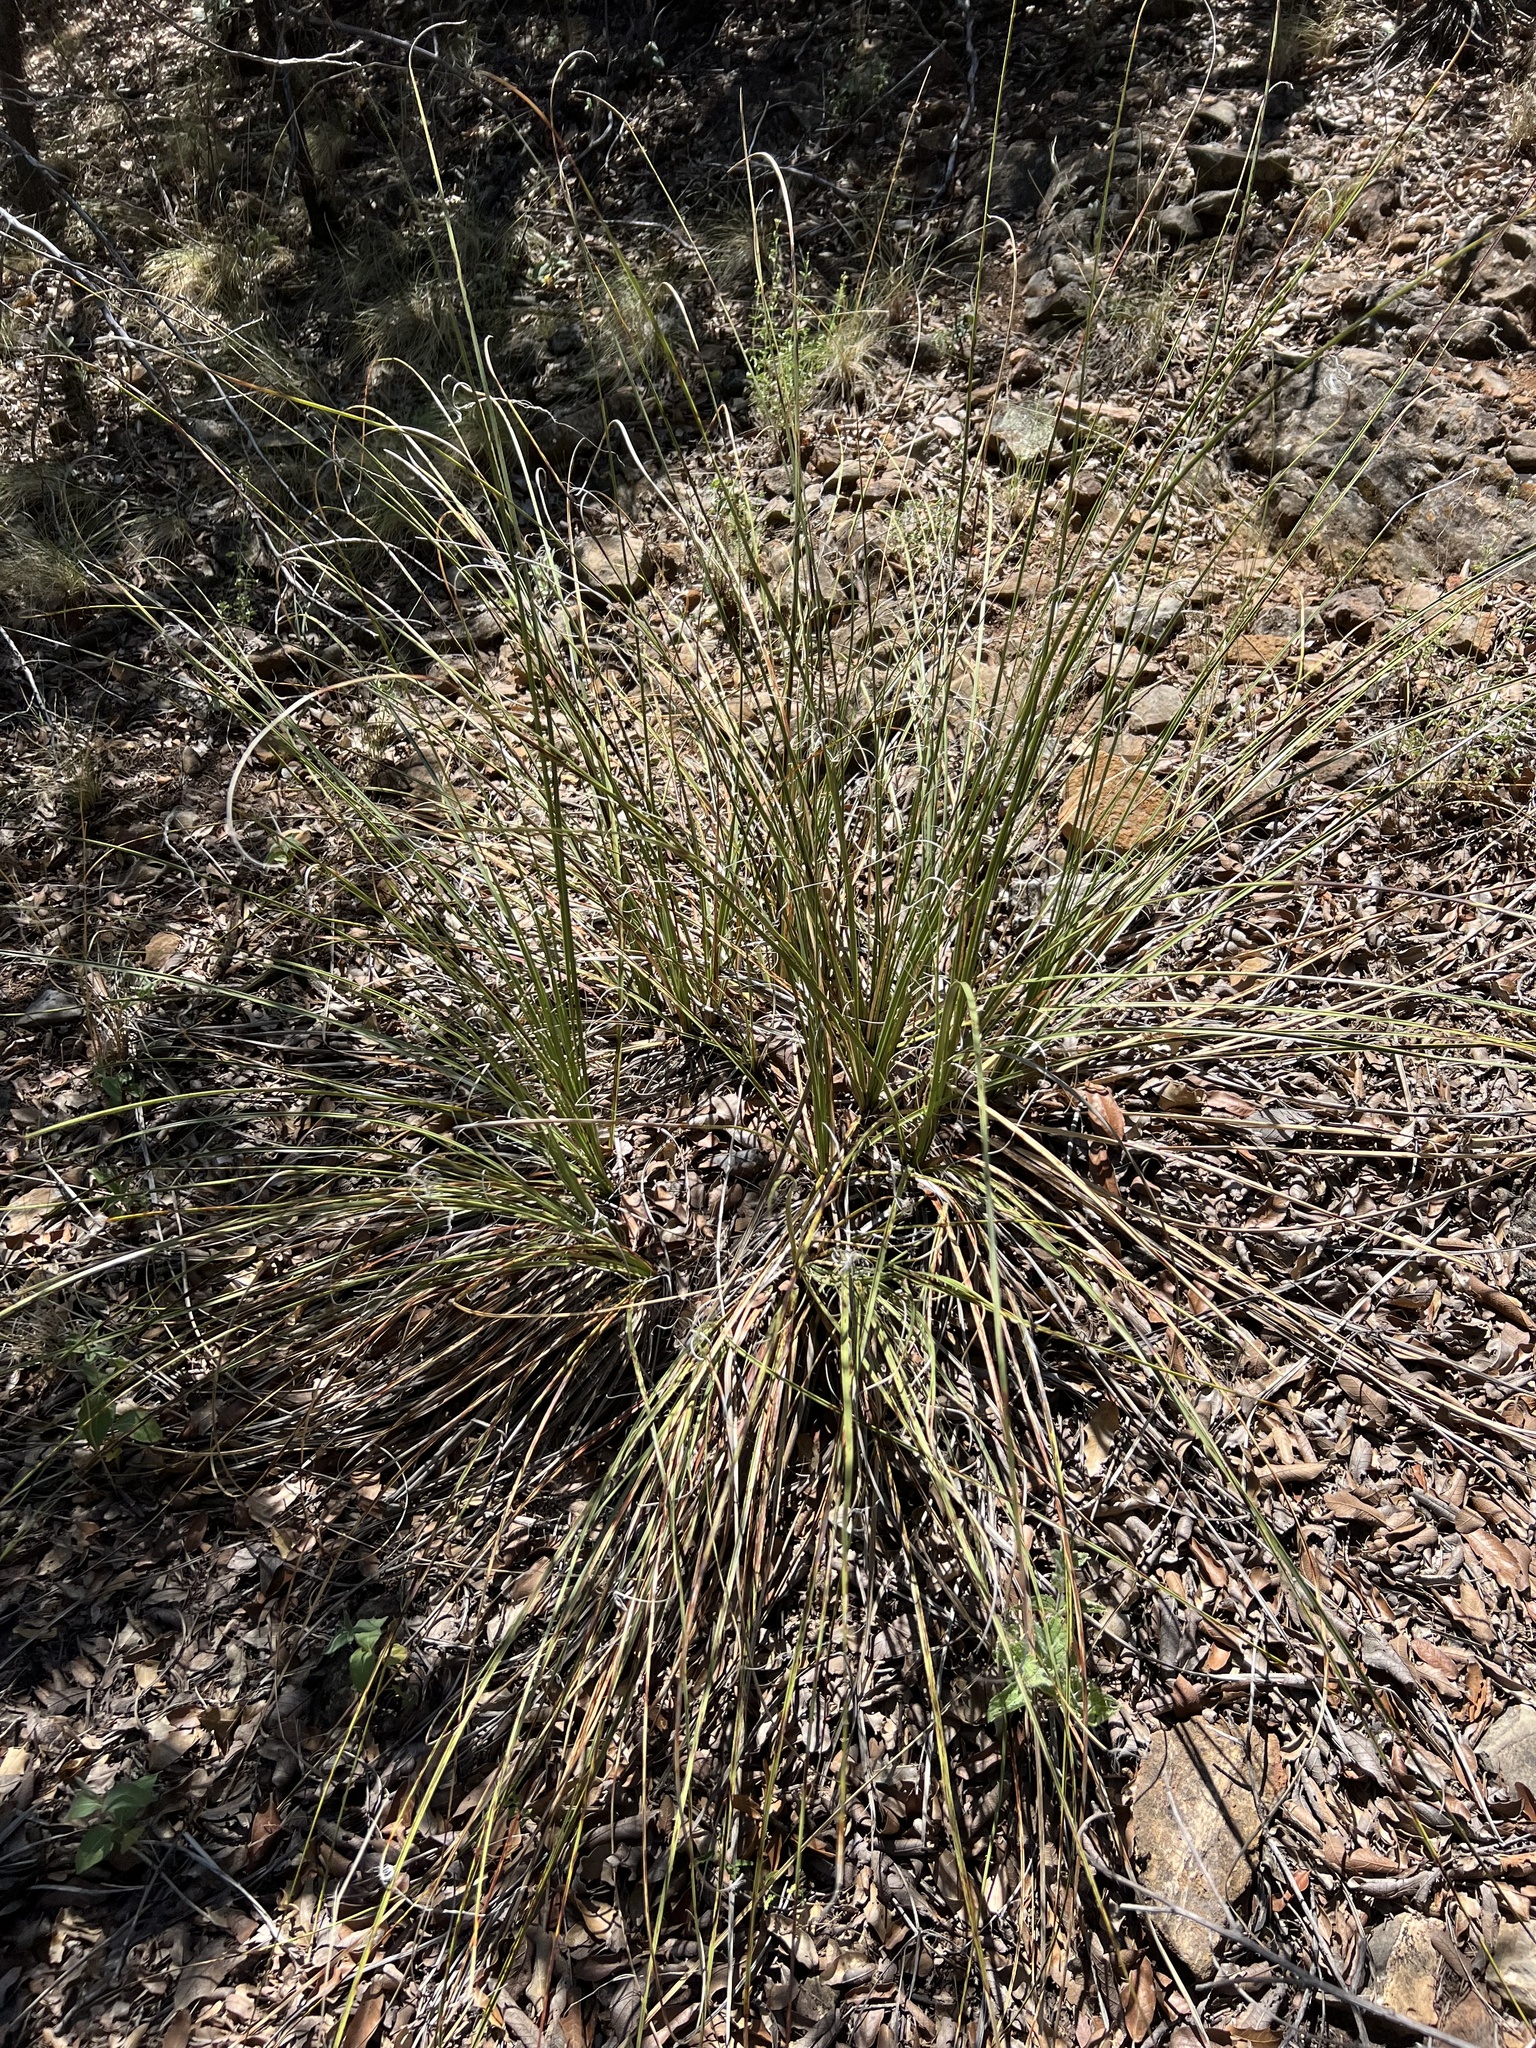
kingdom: Plantae
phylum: Tracheophyta
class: Liliopsida
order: Asparagales
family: Asparagaceae
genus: Nolina
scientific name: Nolina microcarpa
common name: Bear-grass
